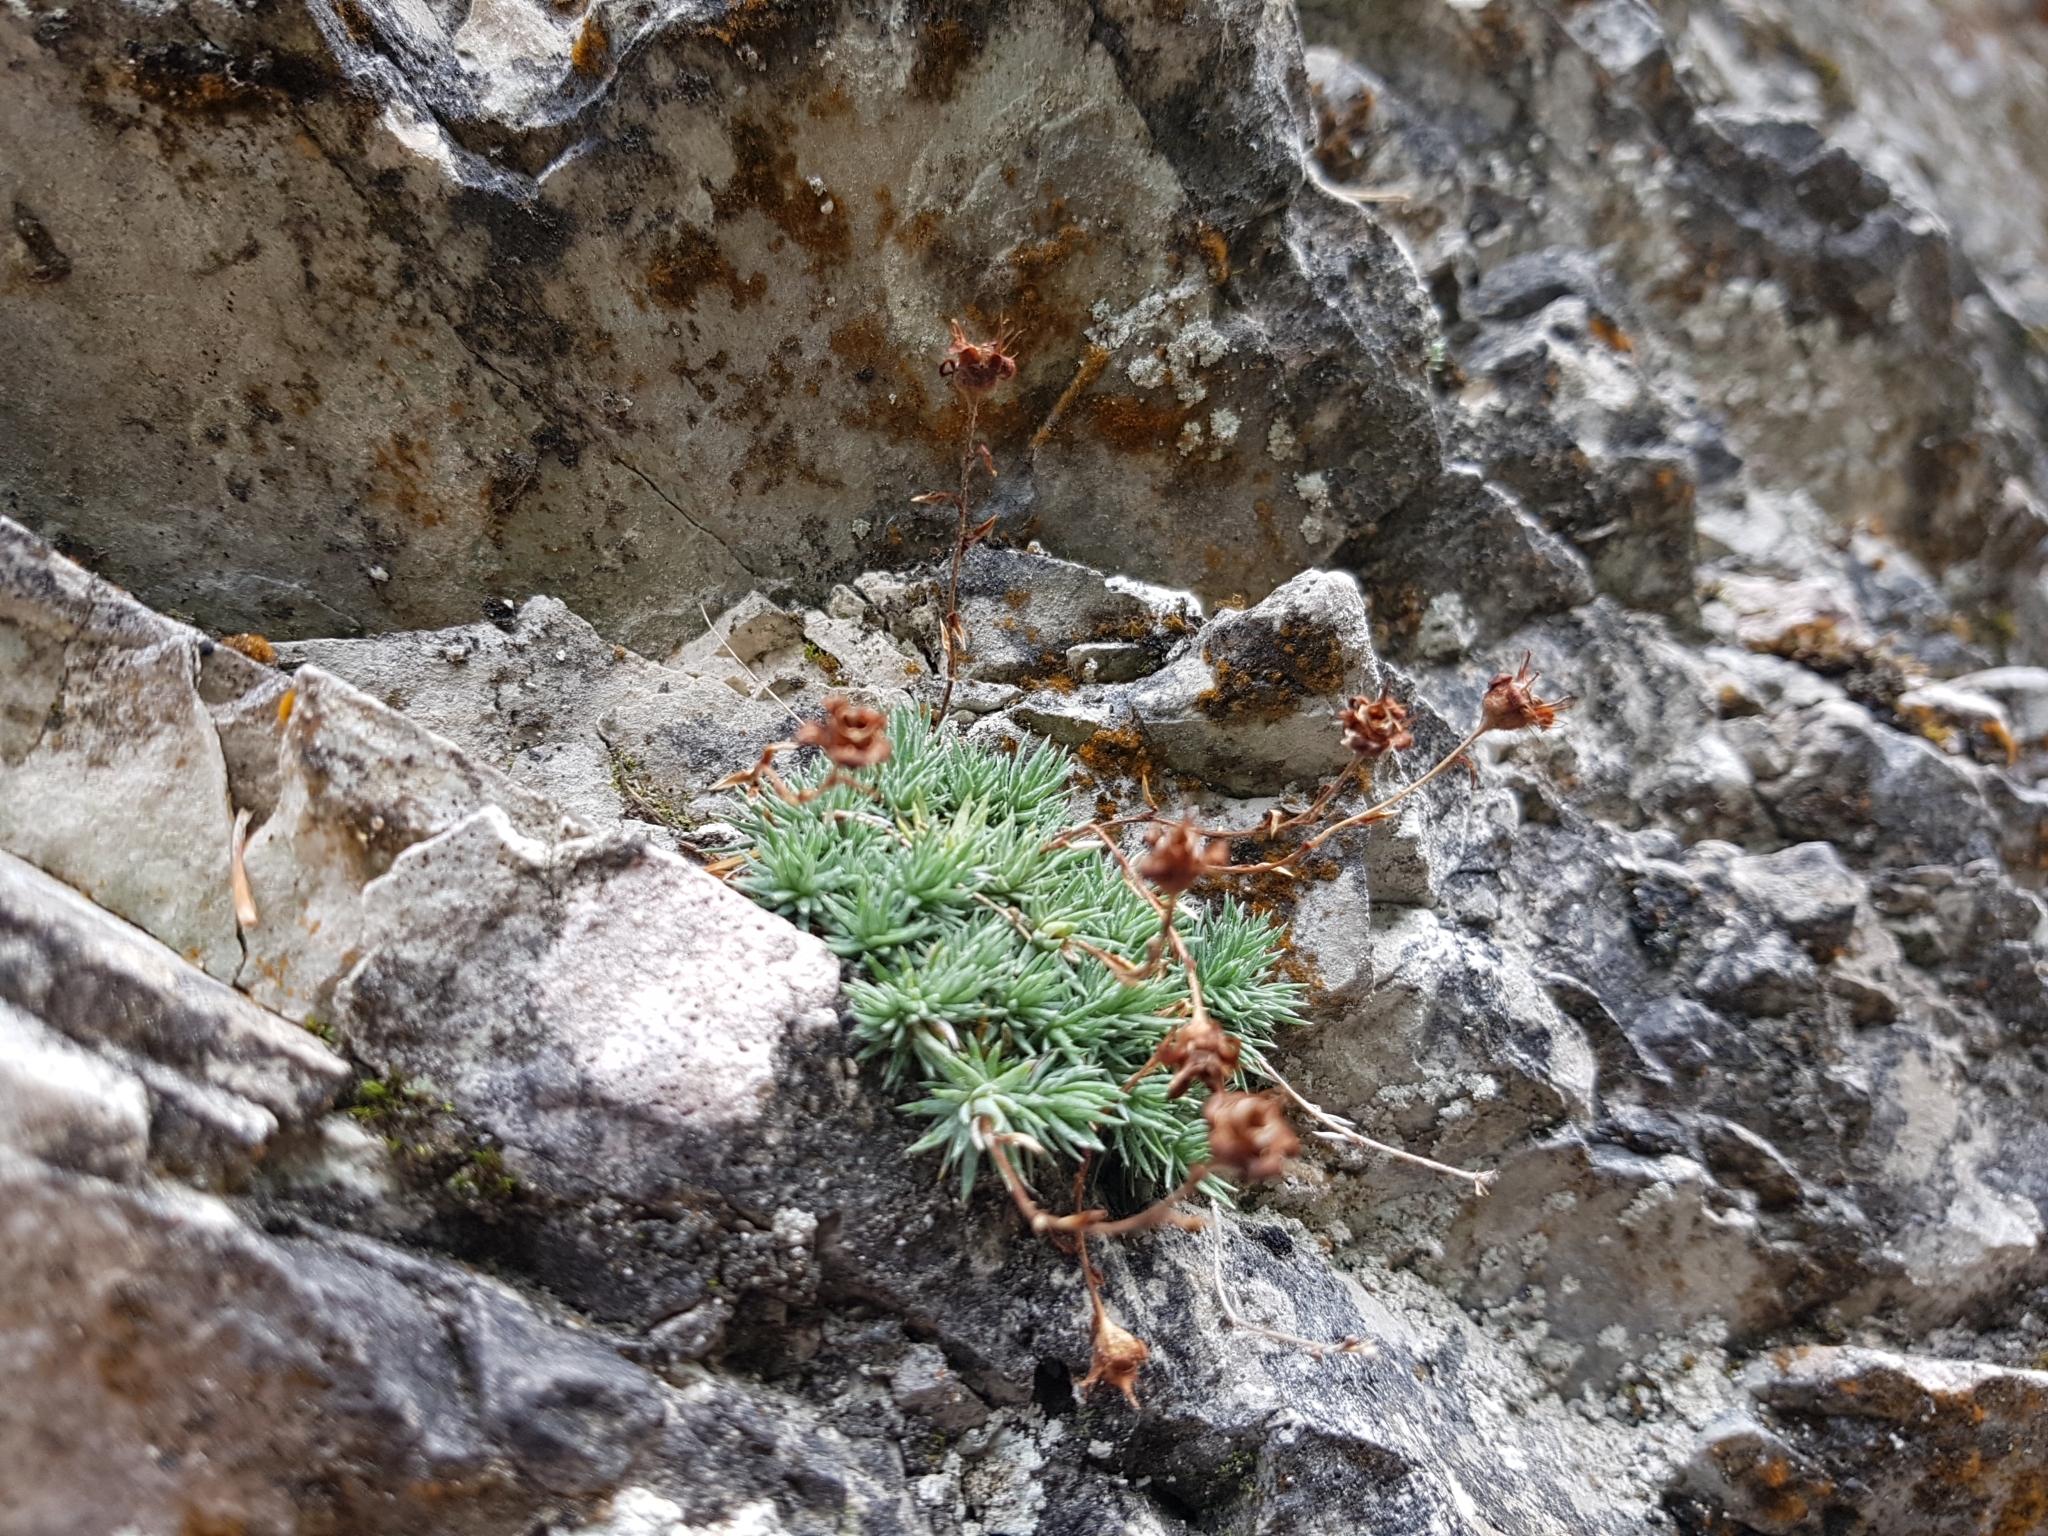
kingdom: Plantae
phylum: Tracheophyta
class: Magnoliopsida
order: Saxifragales
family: Saxifragaceae
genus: Saxifraga
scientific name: Saxifraga burseriana
